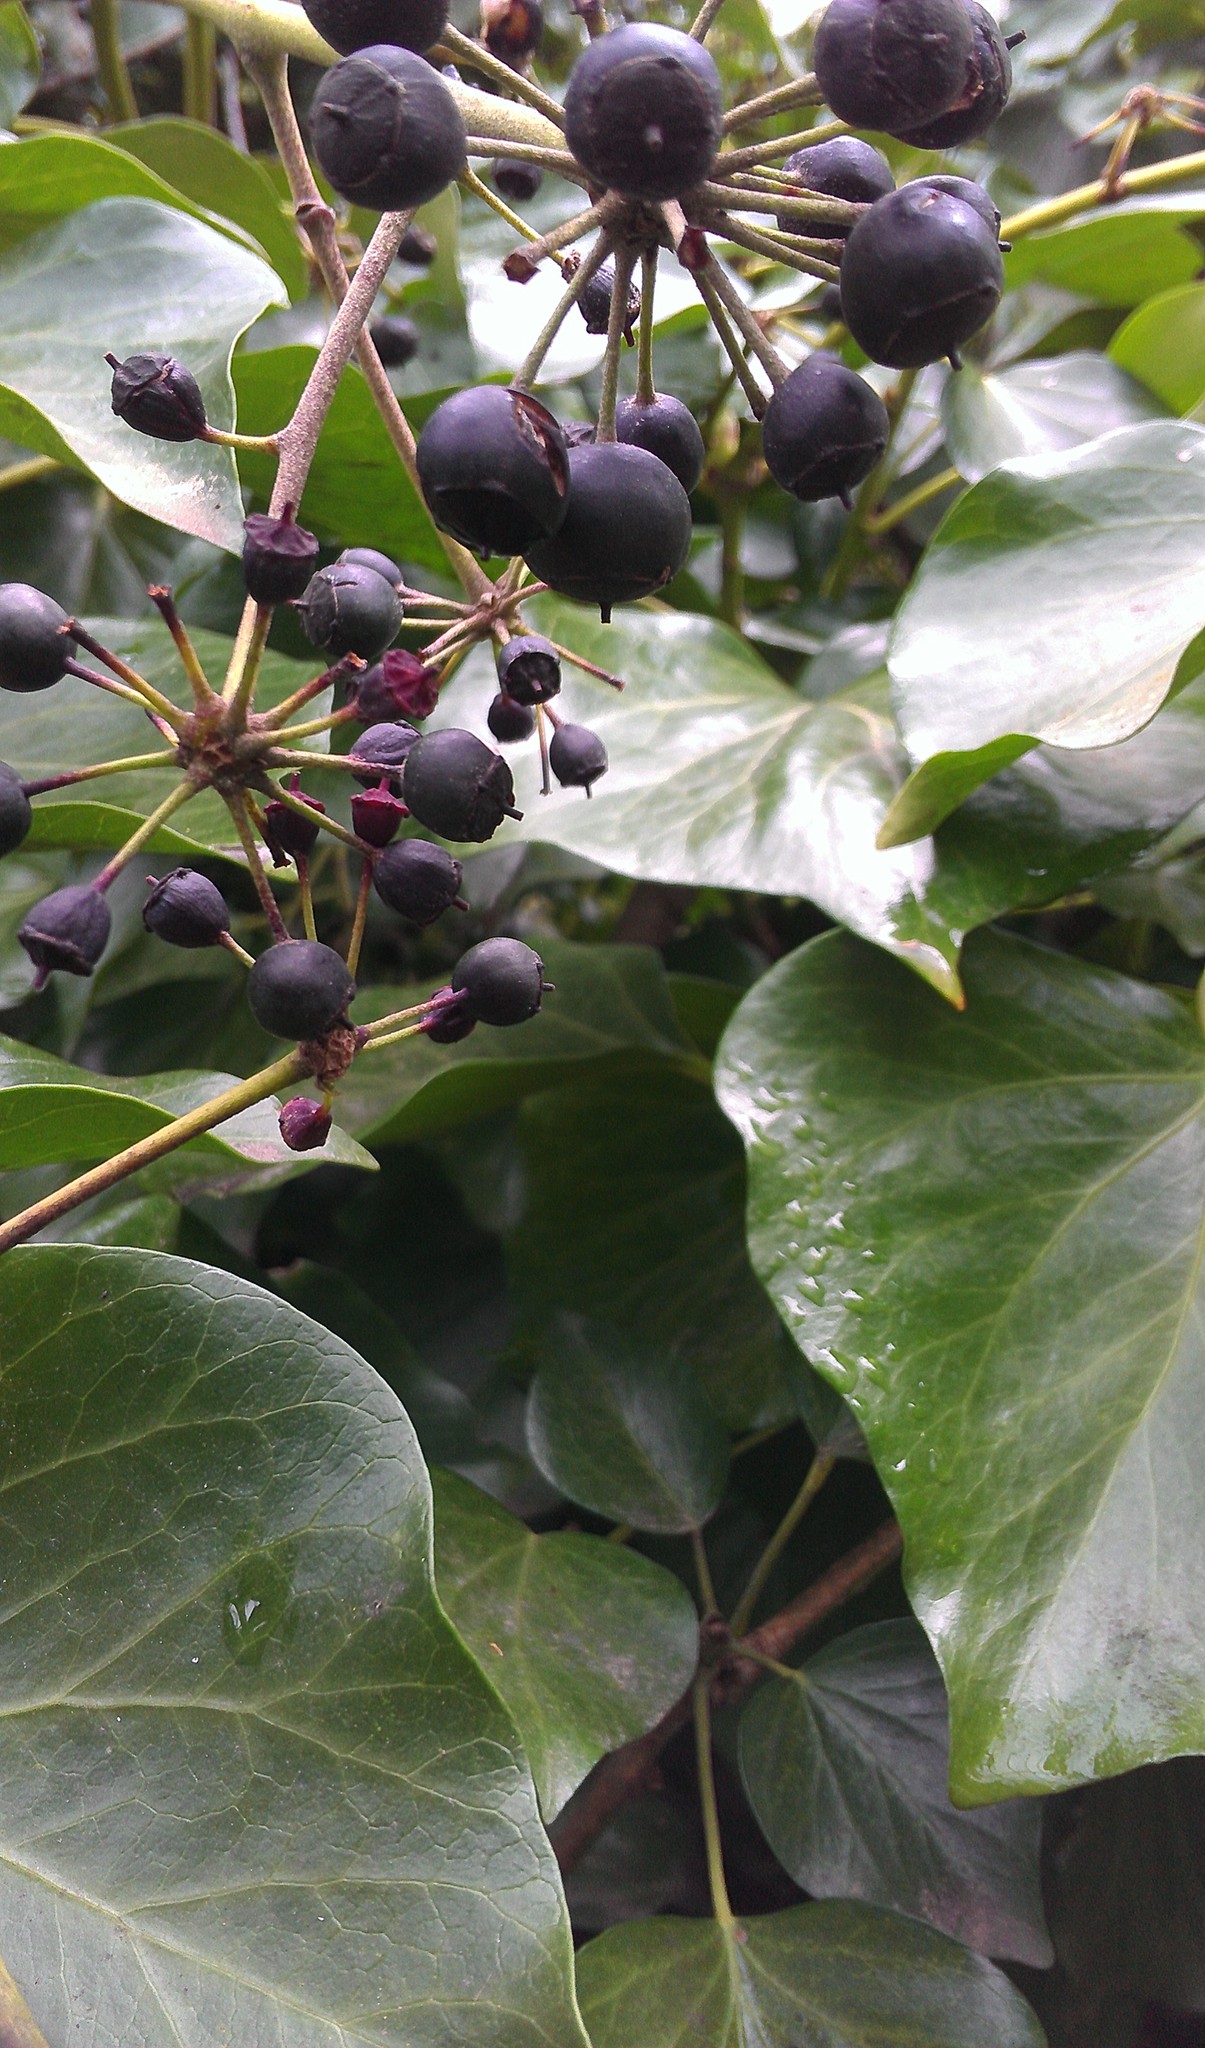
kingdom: Plantae
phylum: Tracheophyta
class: Magnoliopsida
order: Apiales
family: Araliaceae
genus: Hedera
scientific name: Hedera helix
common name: Ivy
